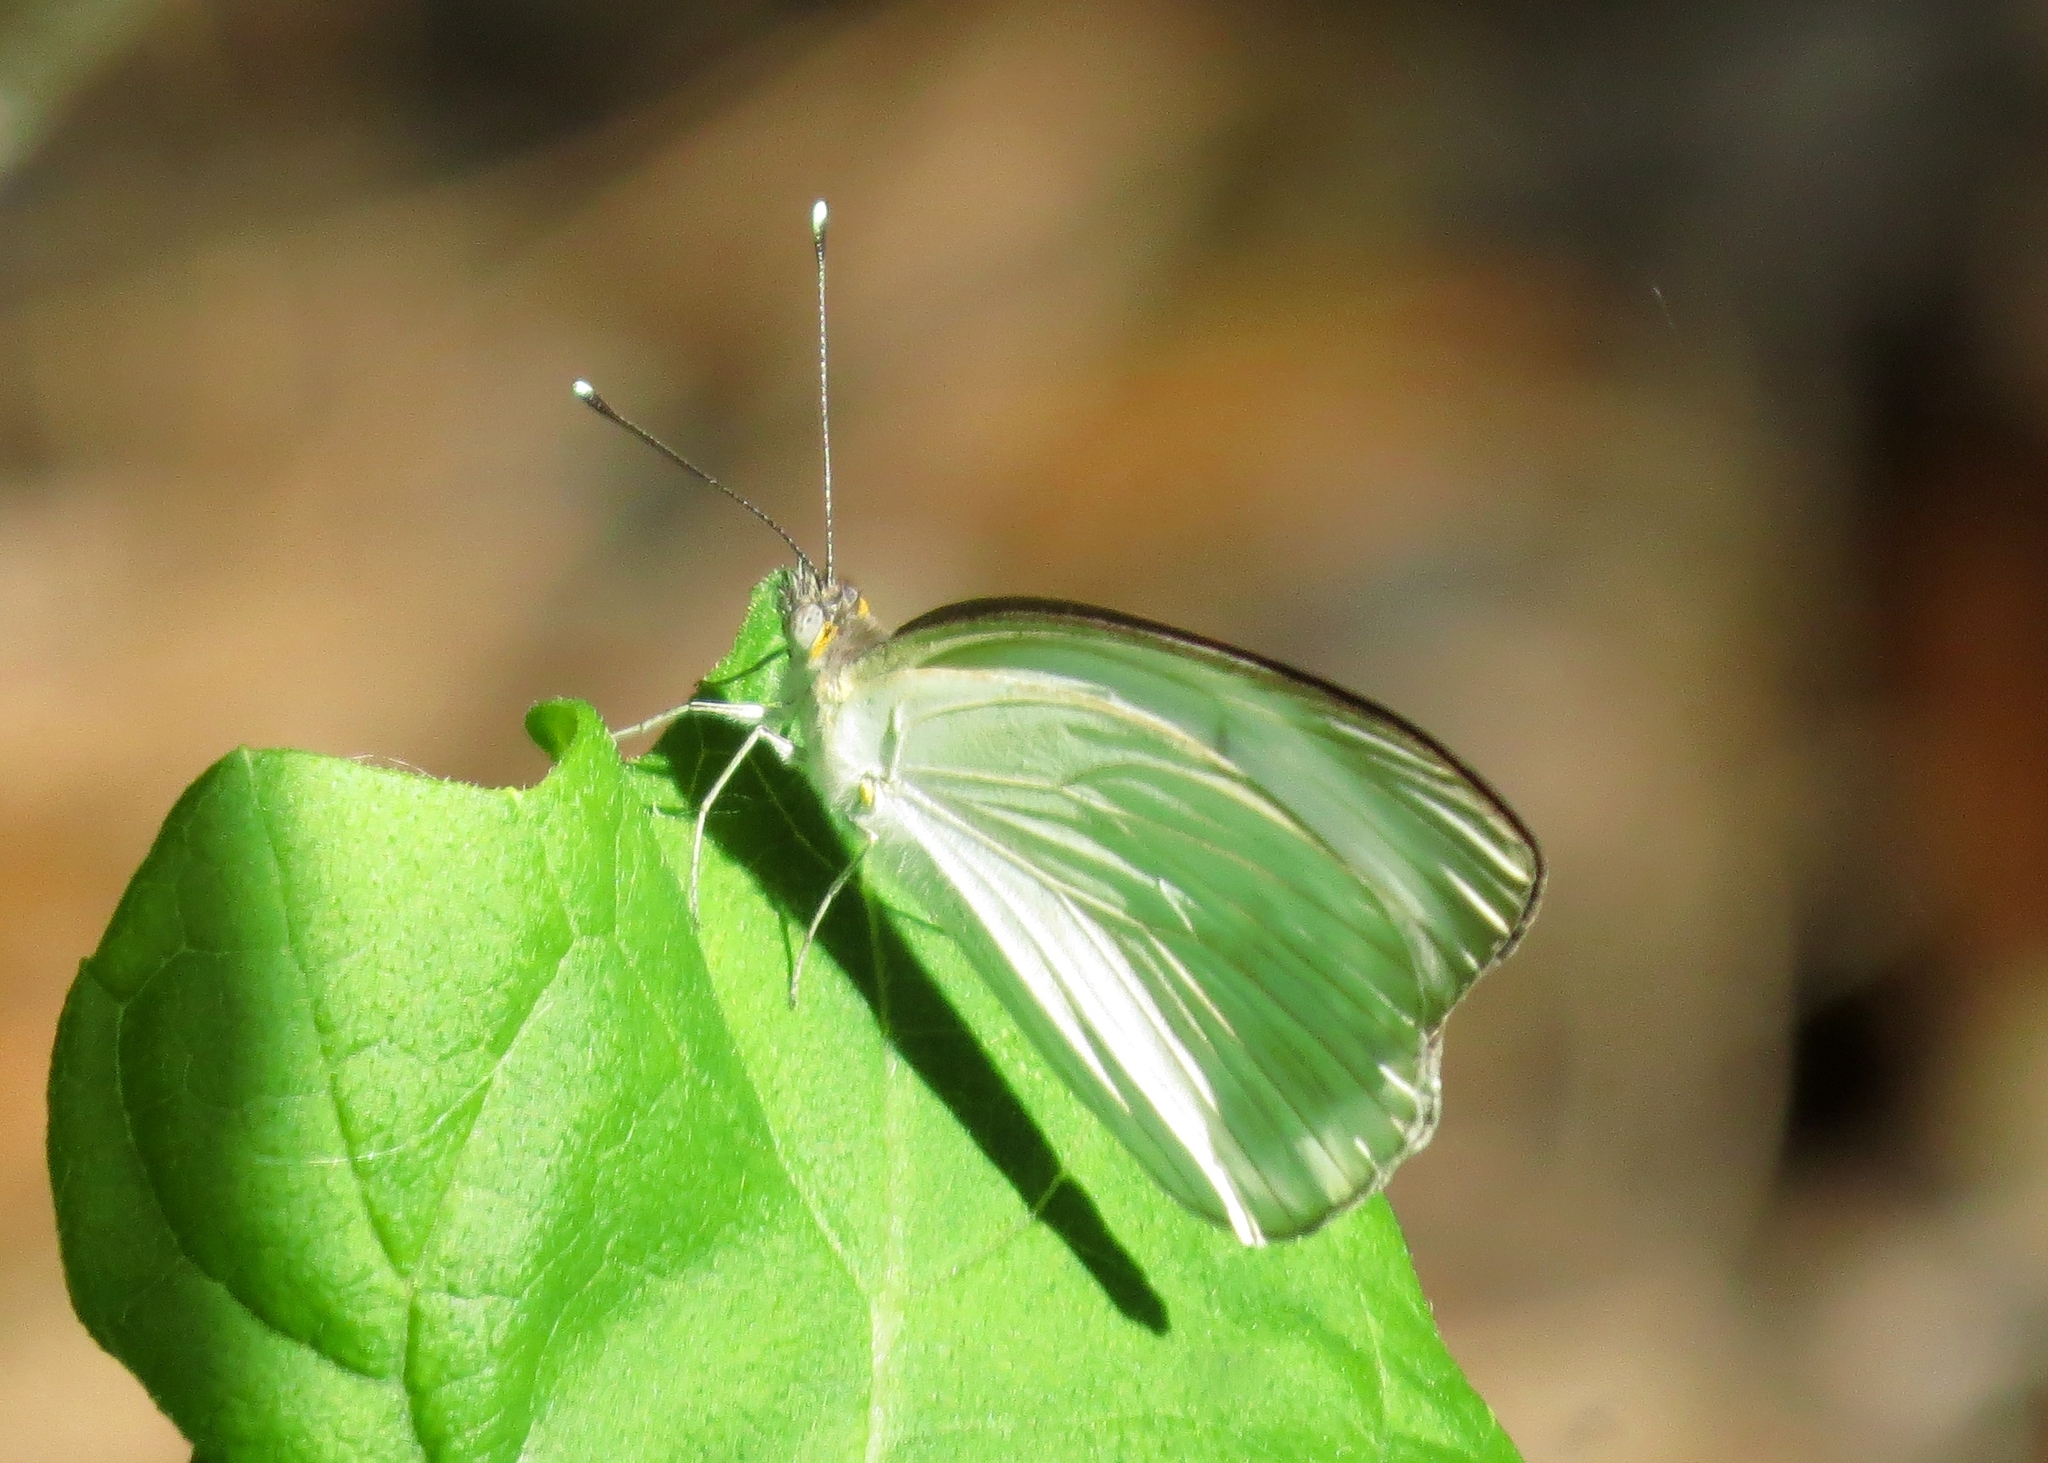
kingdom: Animalia
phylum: Arthropoda
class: Insecta
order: Lepidoptera
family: Pieridae
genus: Ascia
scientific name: Ascia monuste
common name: Great southern white
